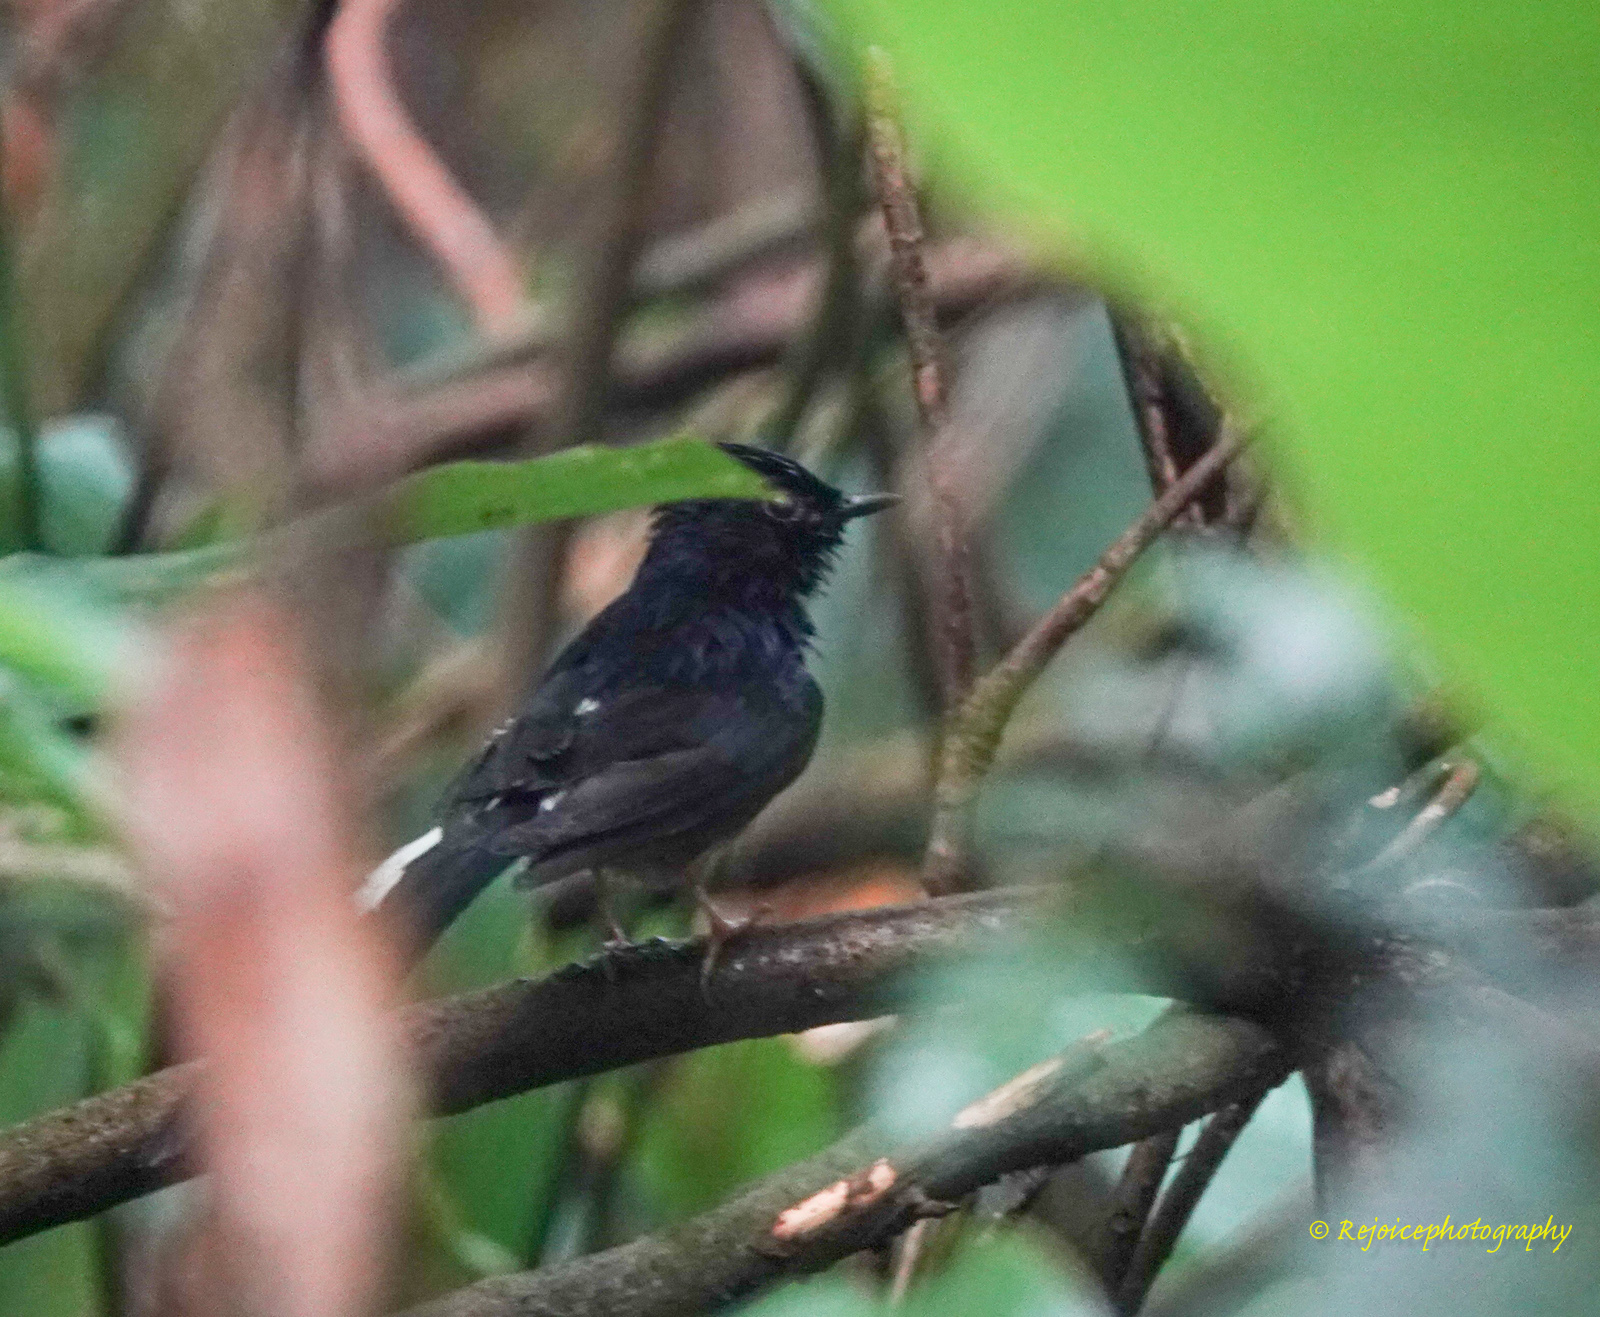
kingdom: Animalia
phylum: Chordata
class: Aves
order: Passeriformes
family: Muscicapidae
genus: Copsychus
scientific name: Copsychus malabaricus
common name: White-rumped shama
